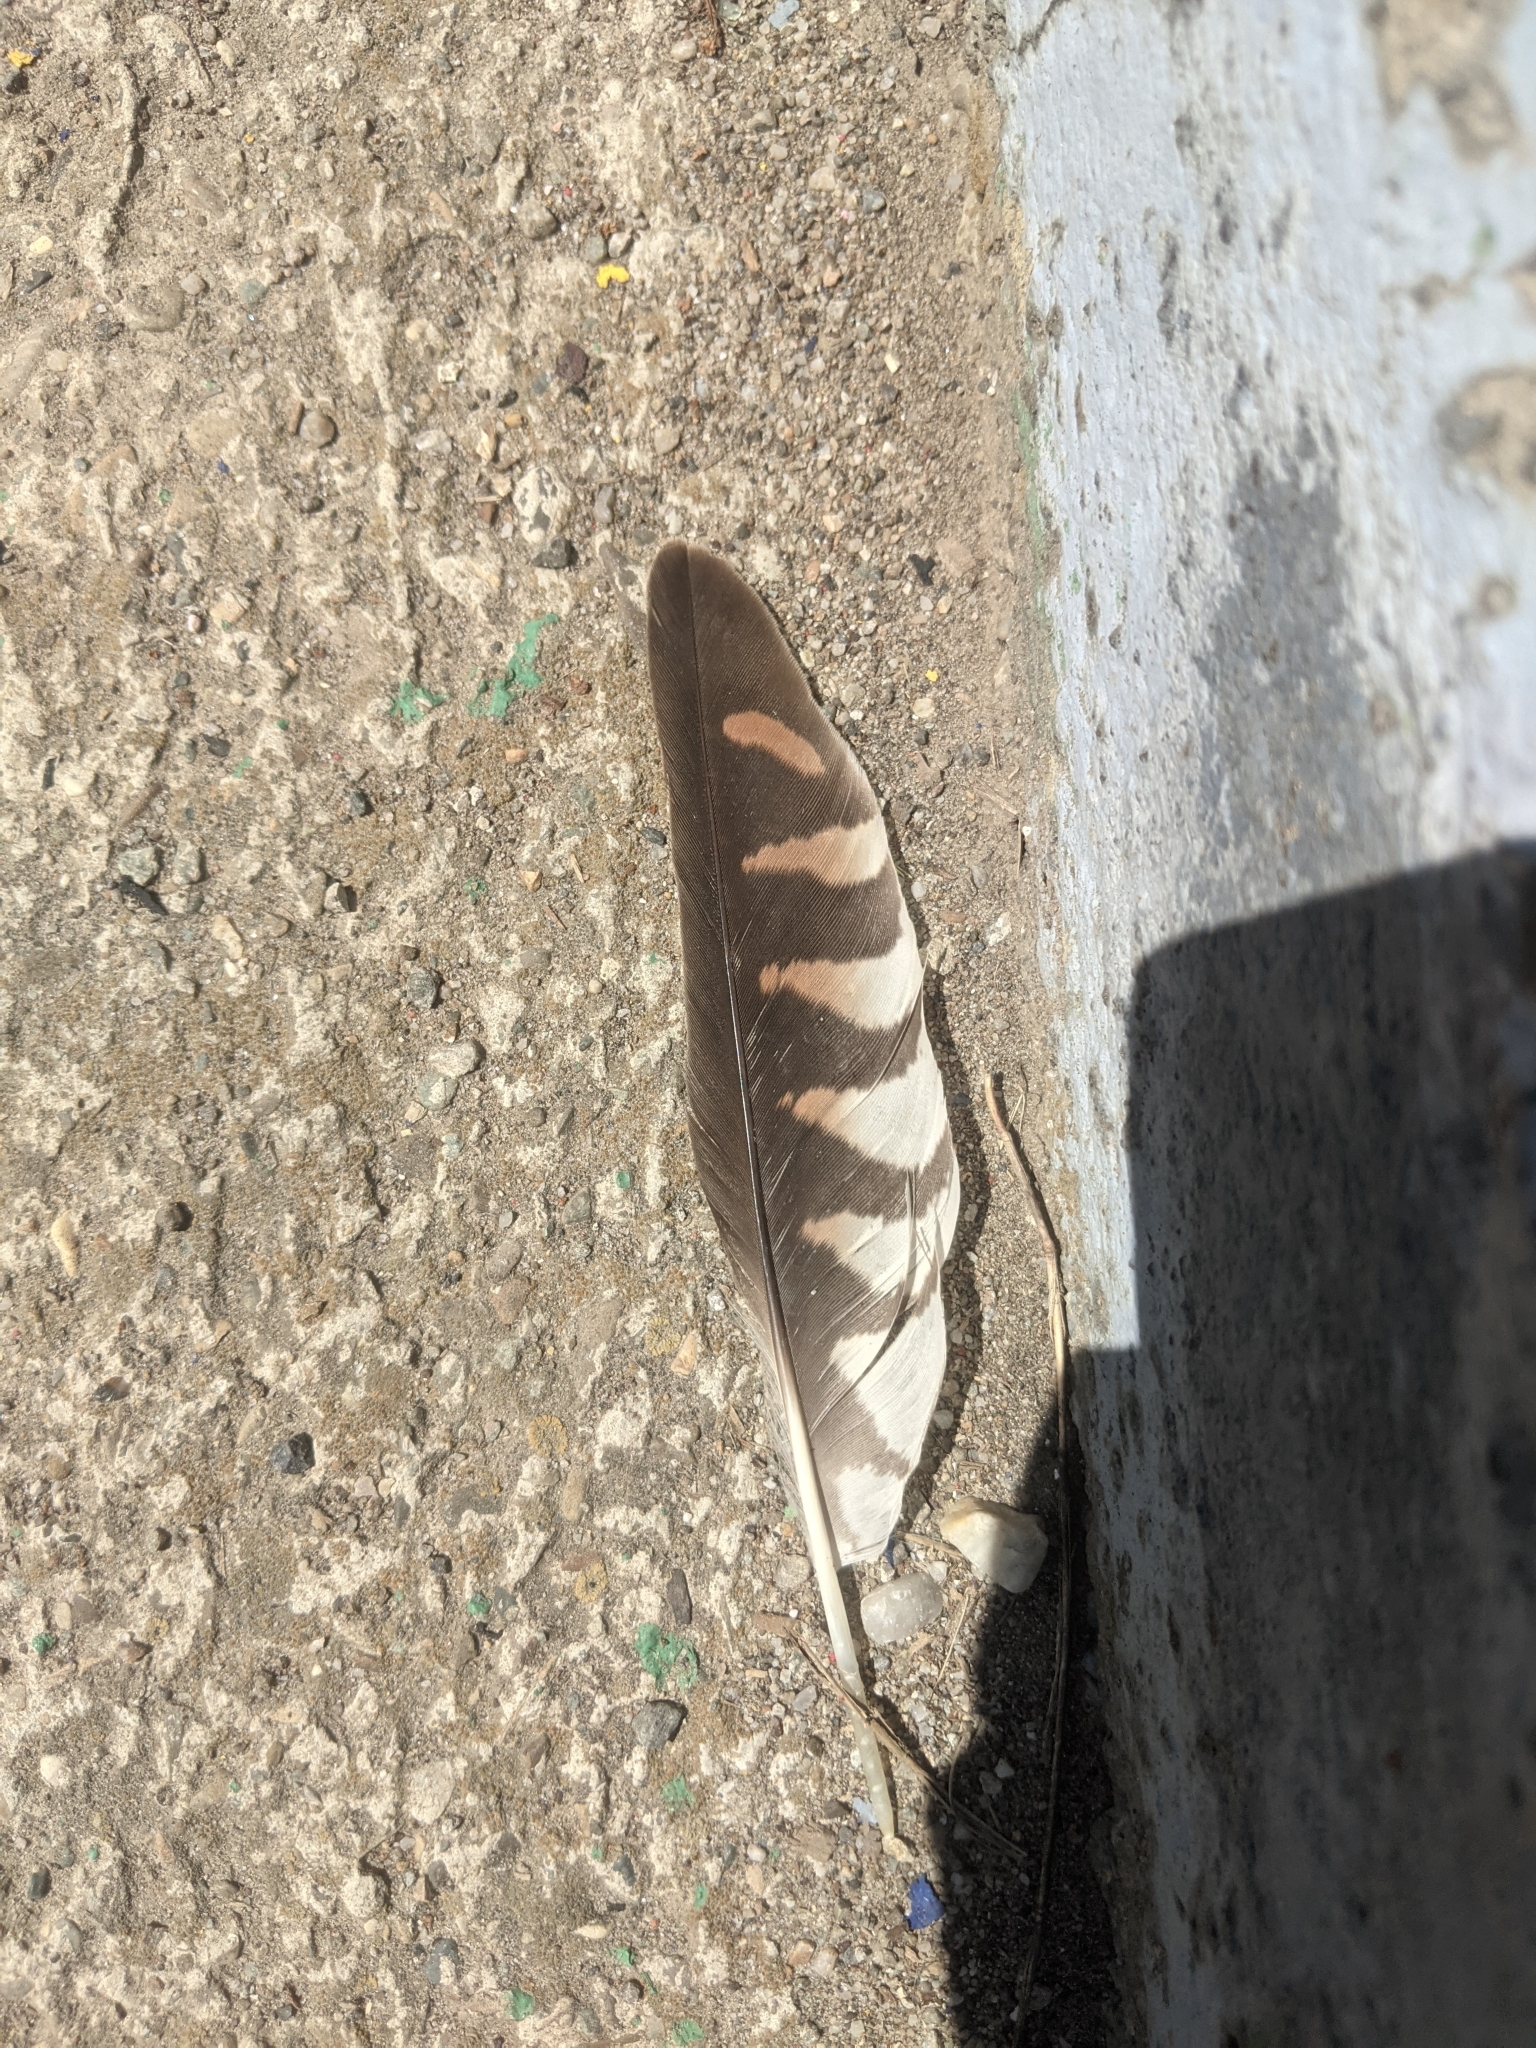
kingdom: Animalia
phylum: Chordata
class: Aves
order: Falconiformes
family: Falconidae
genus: Falco
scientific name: Falco tinnunculus
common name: Common kestrel
